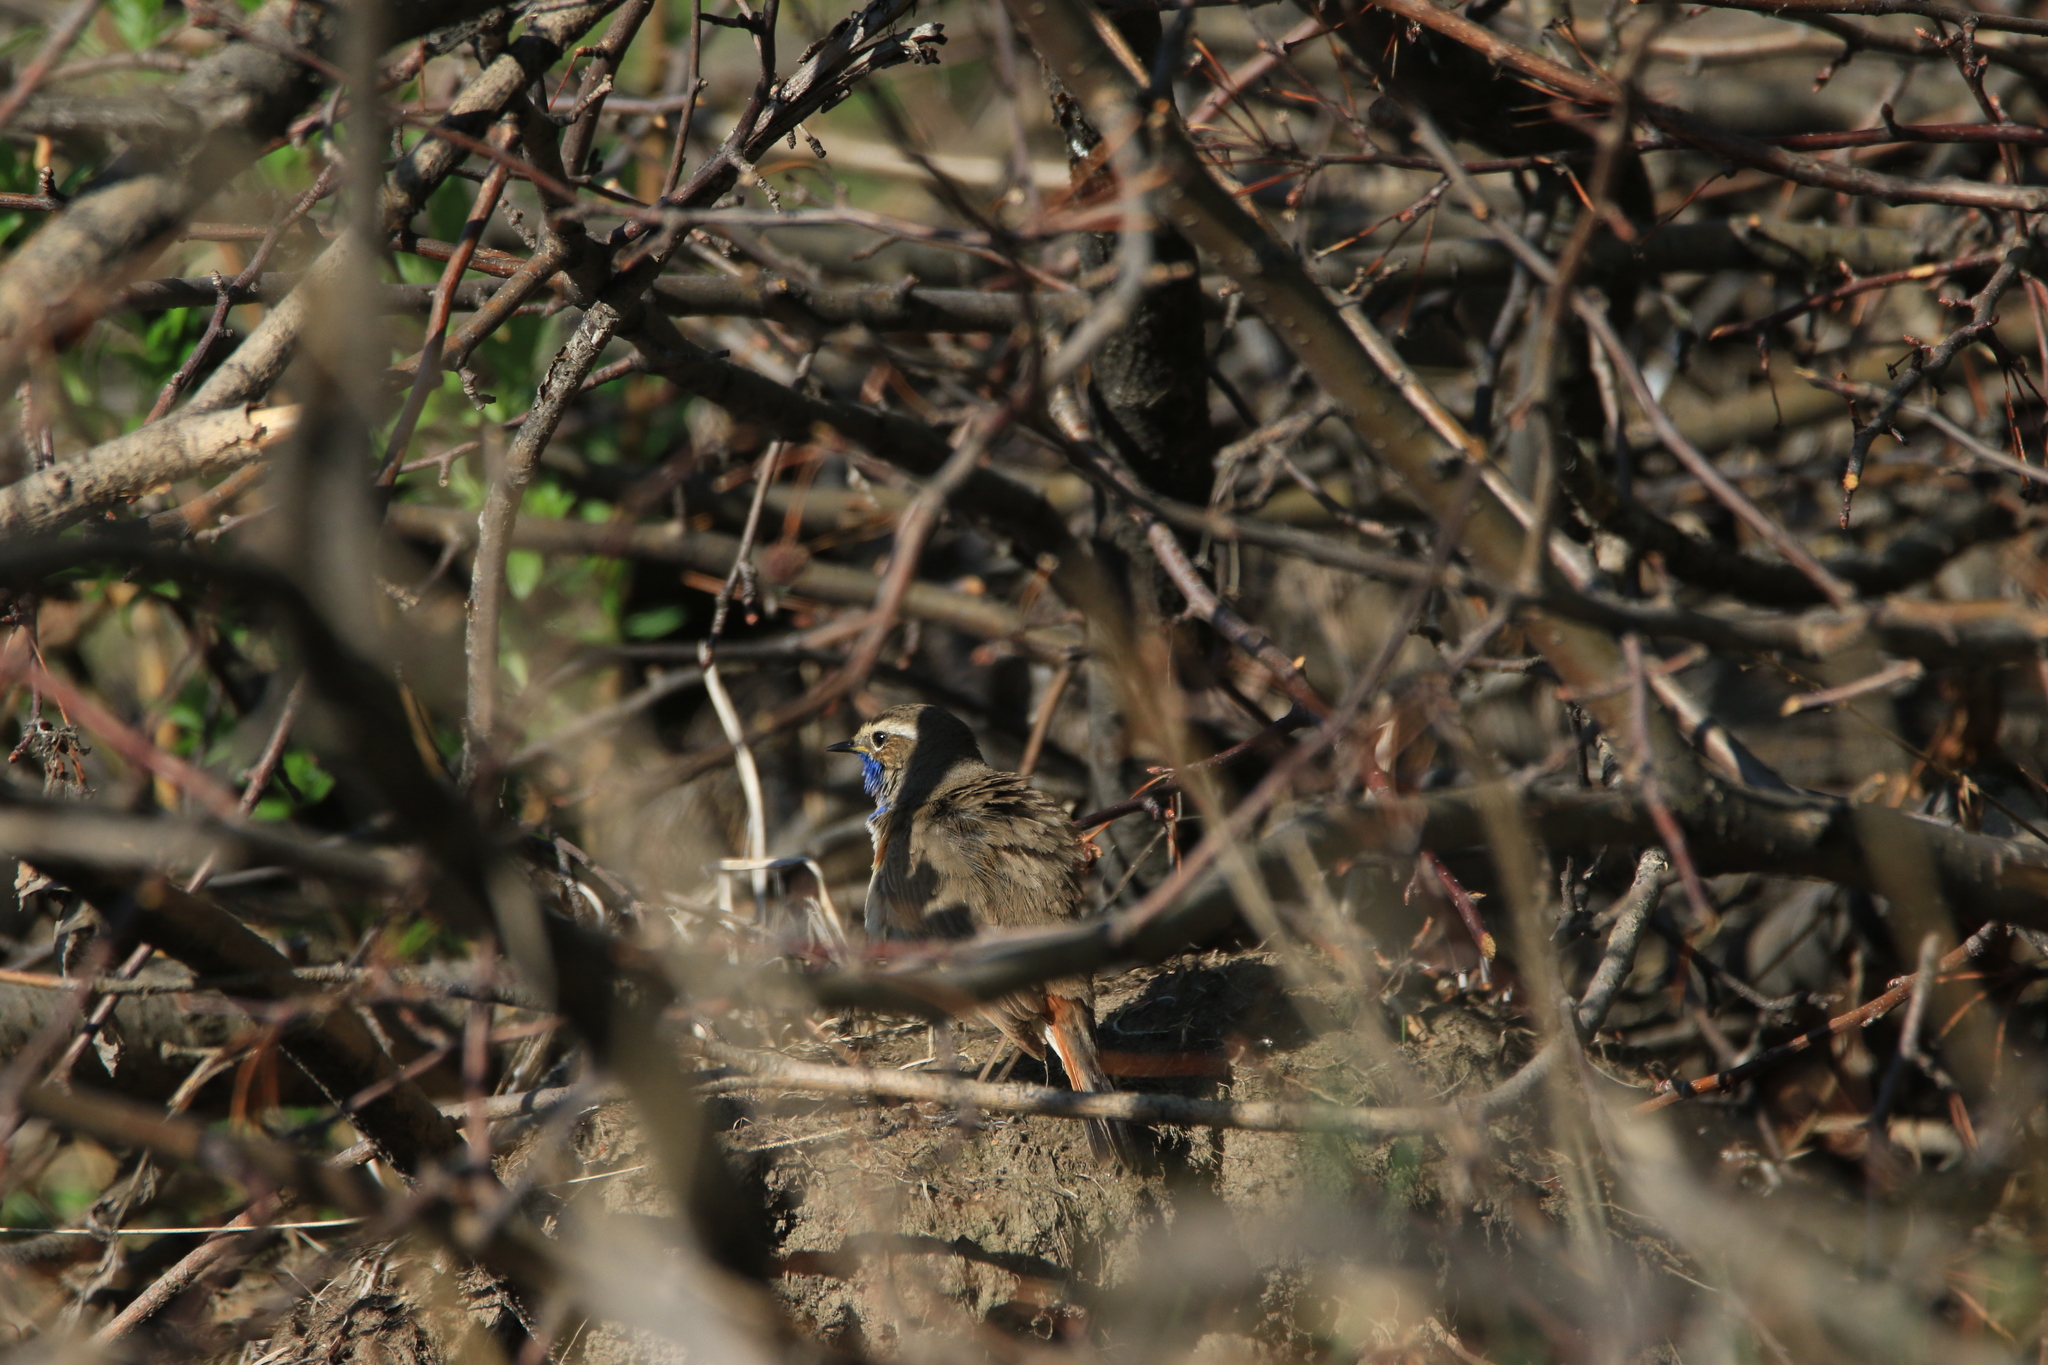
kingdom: Animalia
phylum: Chordata
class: Aves
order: Passeriformes
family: Muscicapidae
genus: Luscinia
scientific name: Luscinia svecica
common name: Bluethroat
